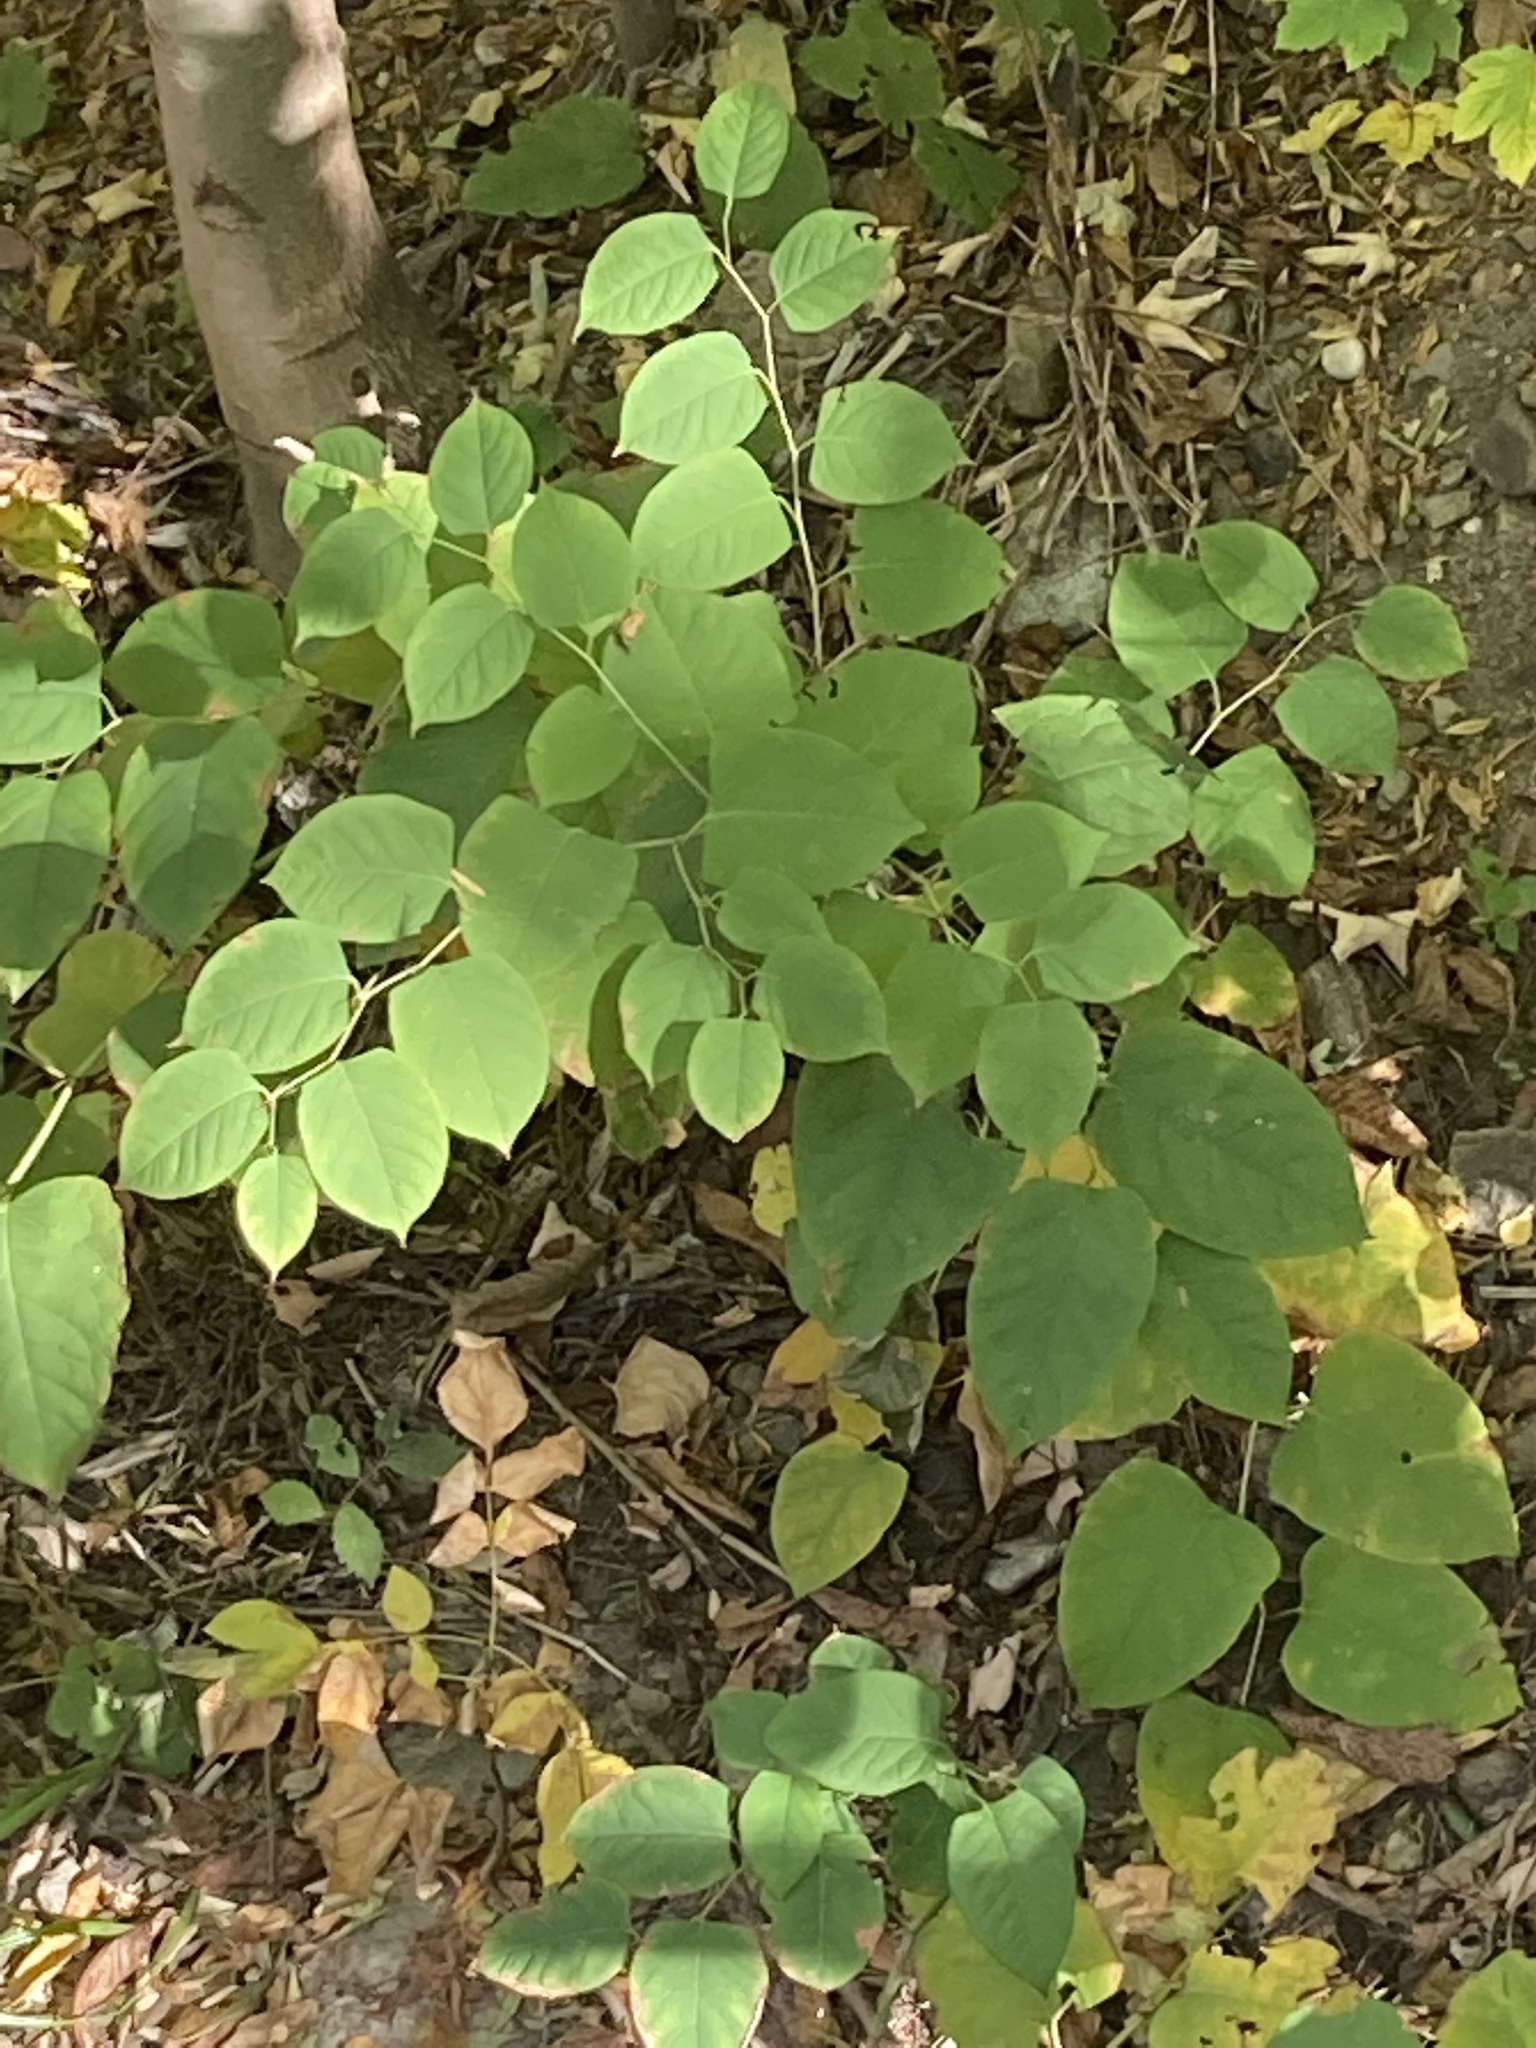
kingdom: Plantae
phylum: Tracheophyta
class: Magnoliopsida
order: Caryophyllales
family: Polygonaceae
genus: Reynoutria
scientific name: Reynoutria japonica
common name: Japanese knotweed
